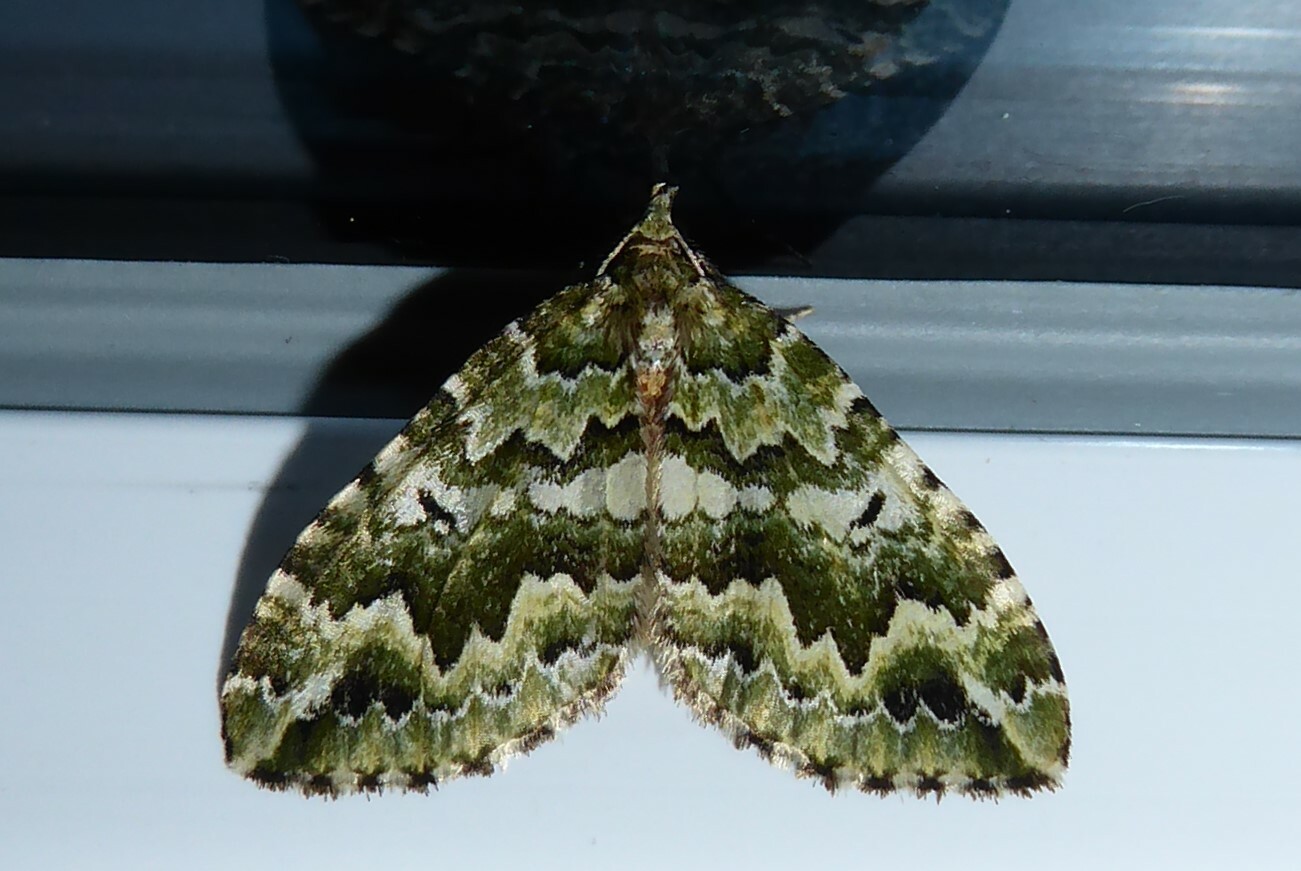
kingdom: Animalia
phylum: Arthropoda
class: Insecta
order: Lepidoptera
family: Geometridae
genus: Asaphodes
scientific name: Asaphodes beata
